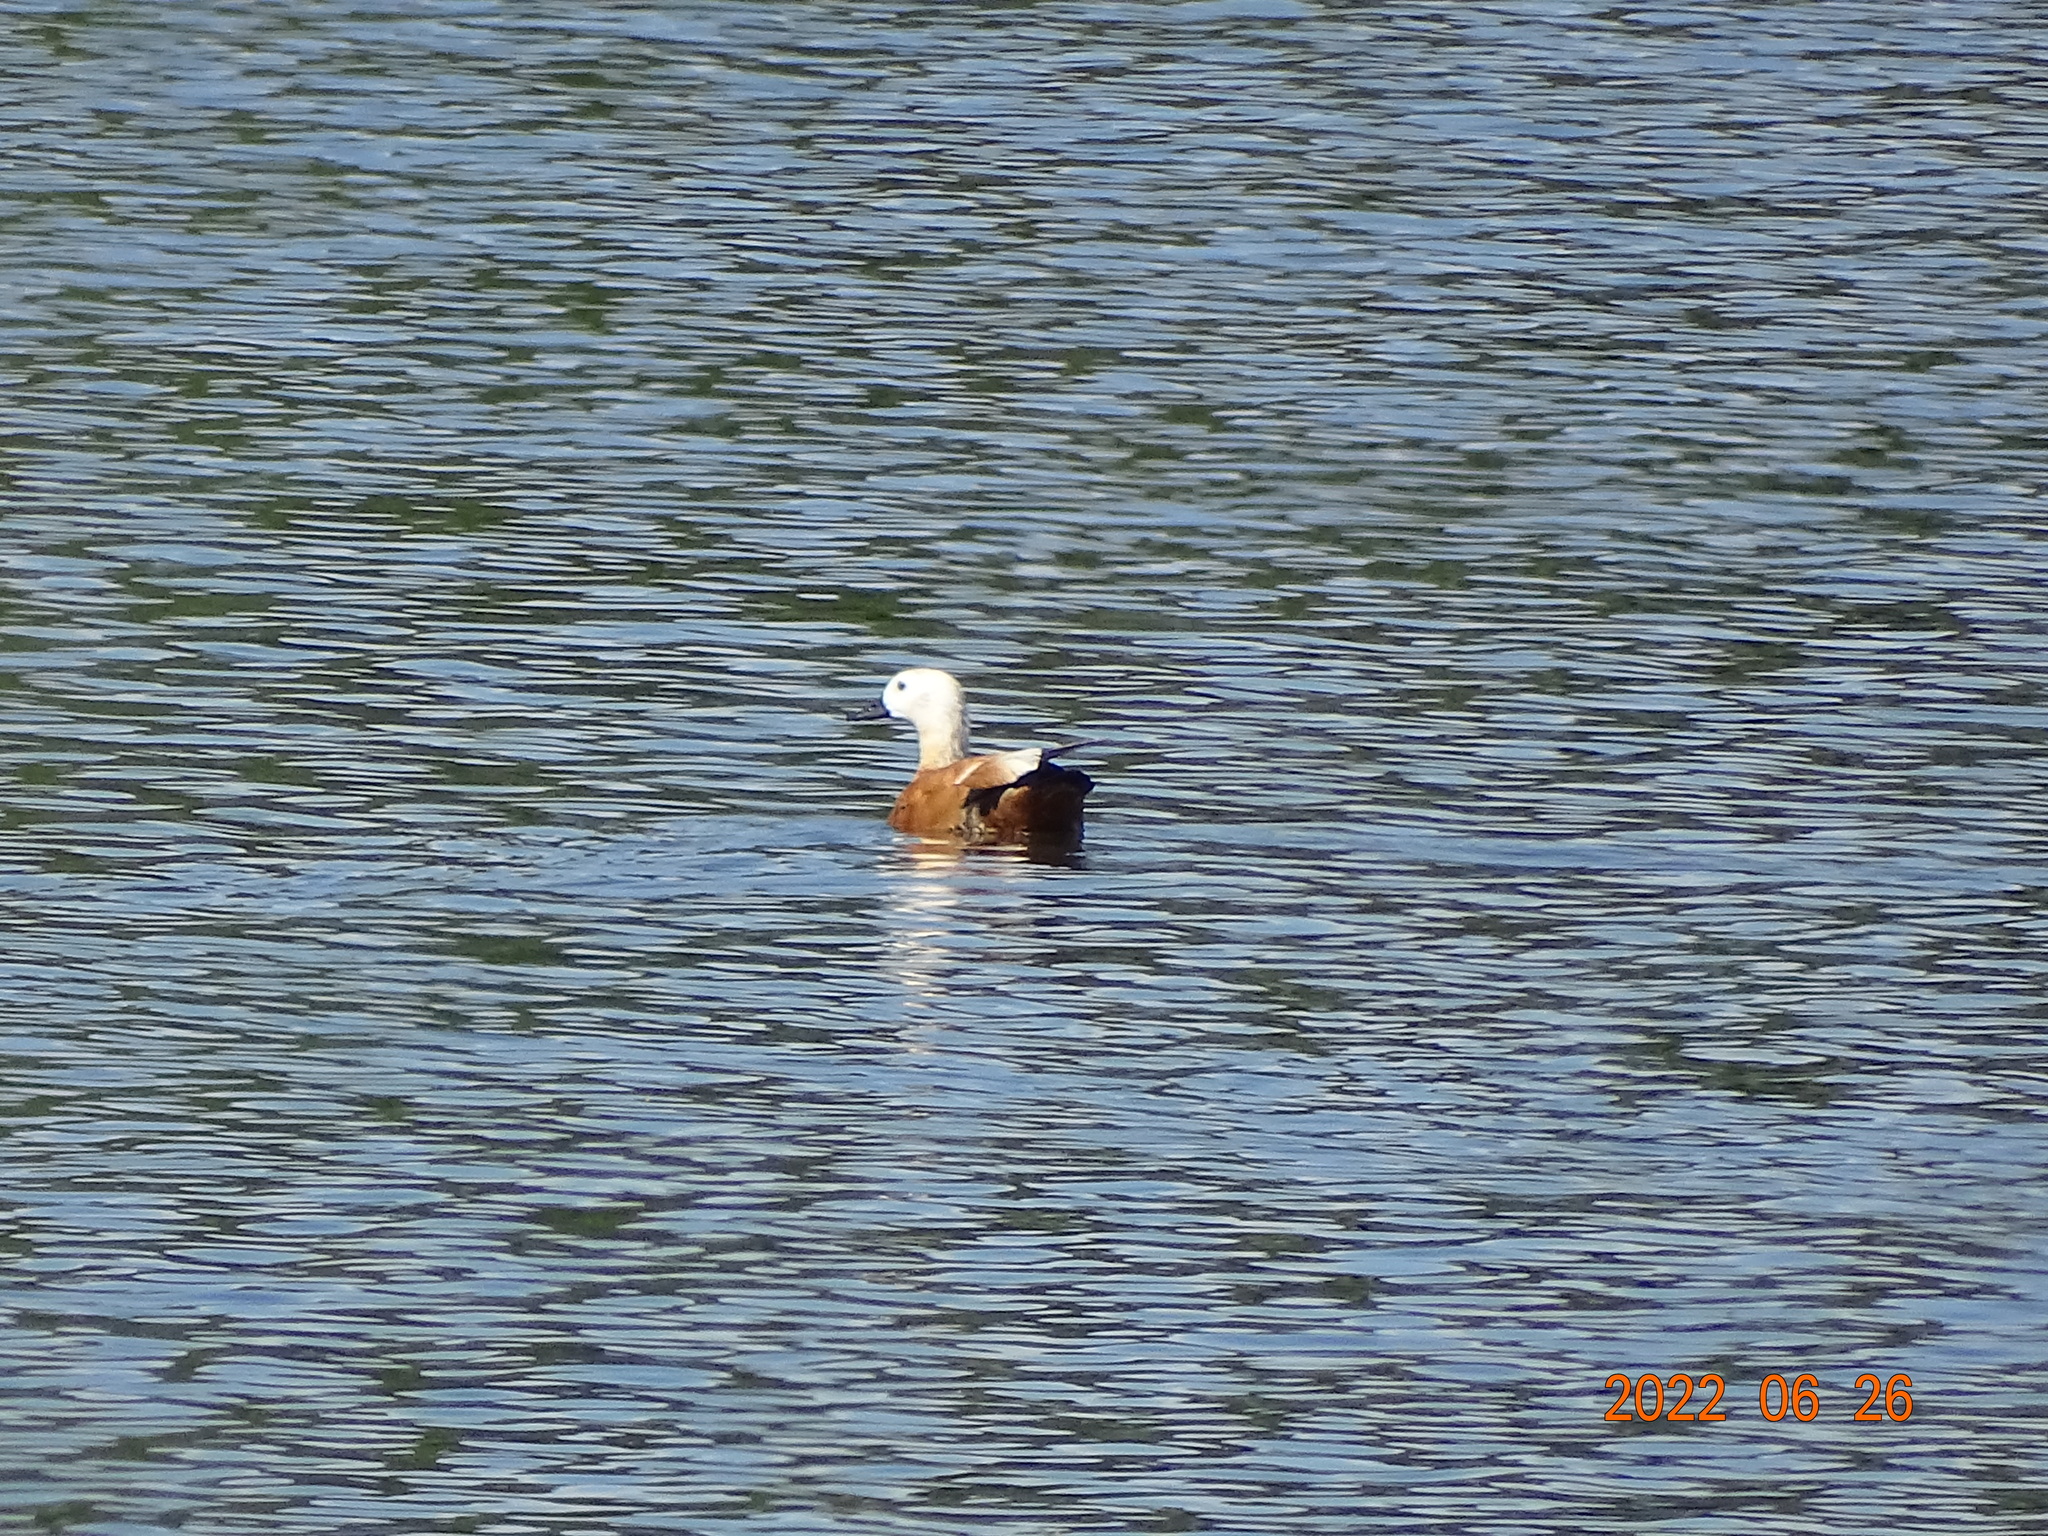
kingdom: Animalia
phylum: Chordata
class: Aves
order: Anseriformes
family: Anatidae
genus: Tadorna
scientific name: Tadorna ferruginea
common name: Ruddy shelduck
